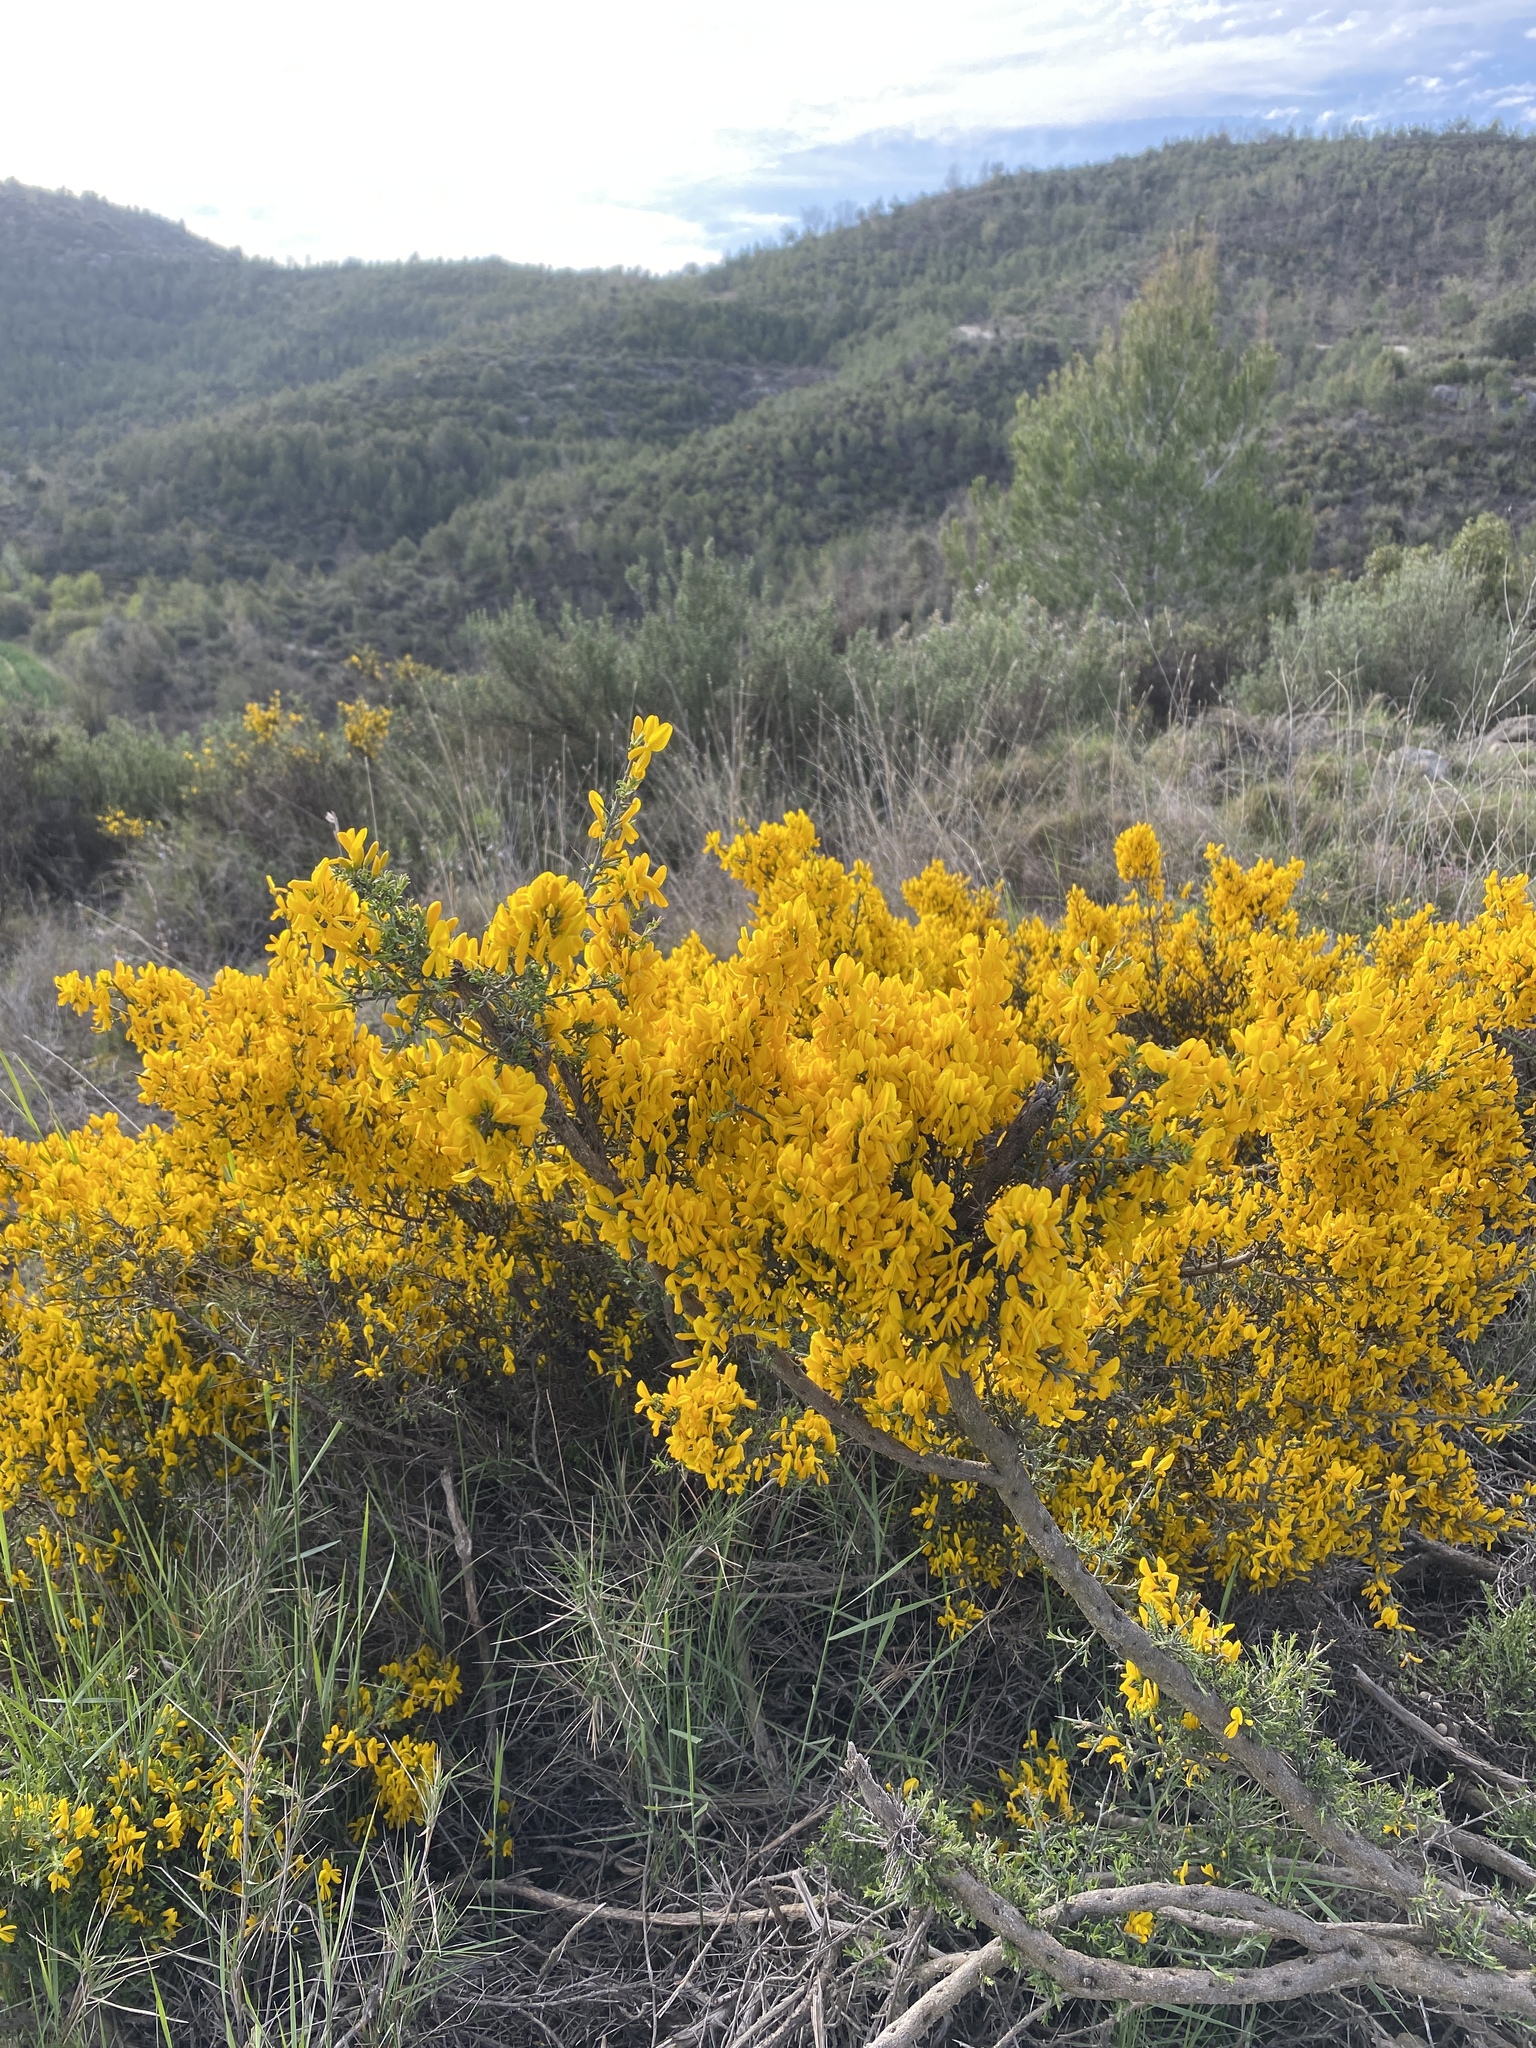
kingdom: Plantae
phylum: Tracheophyta
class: Magnoliopsida
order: Fabales
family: Fabaceae
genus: Genista
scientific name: Genista scorpius
